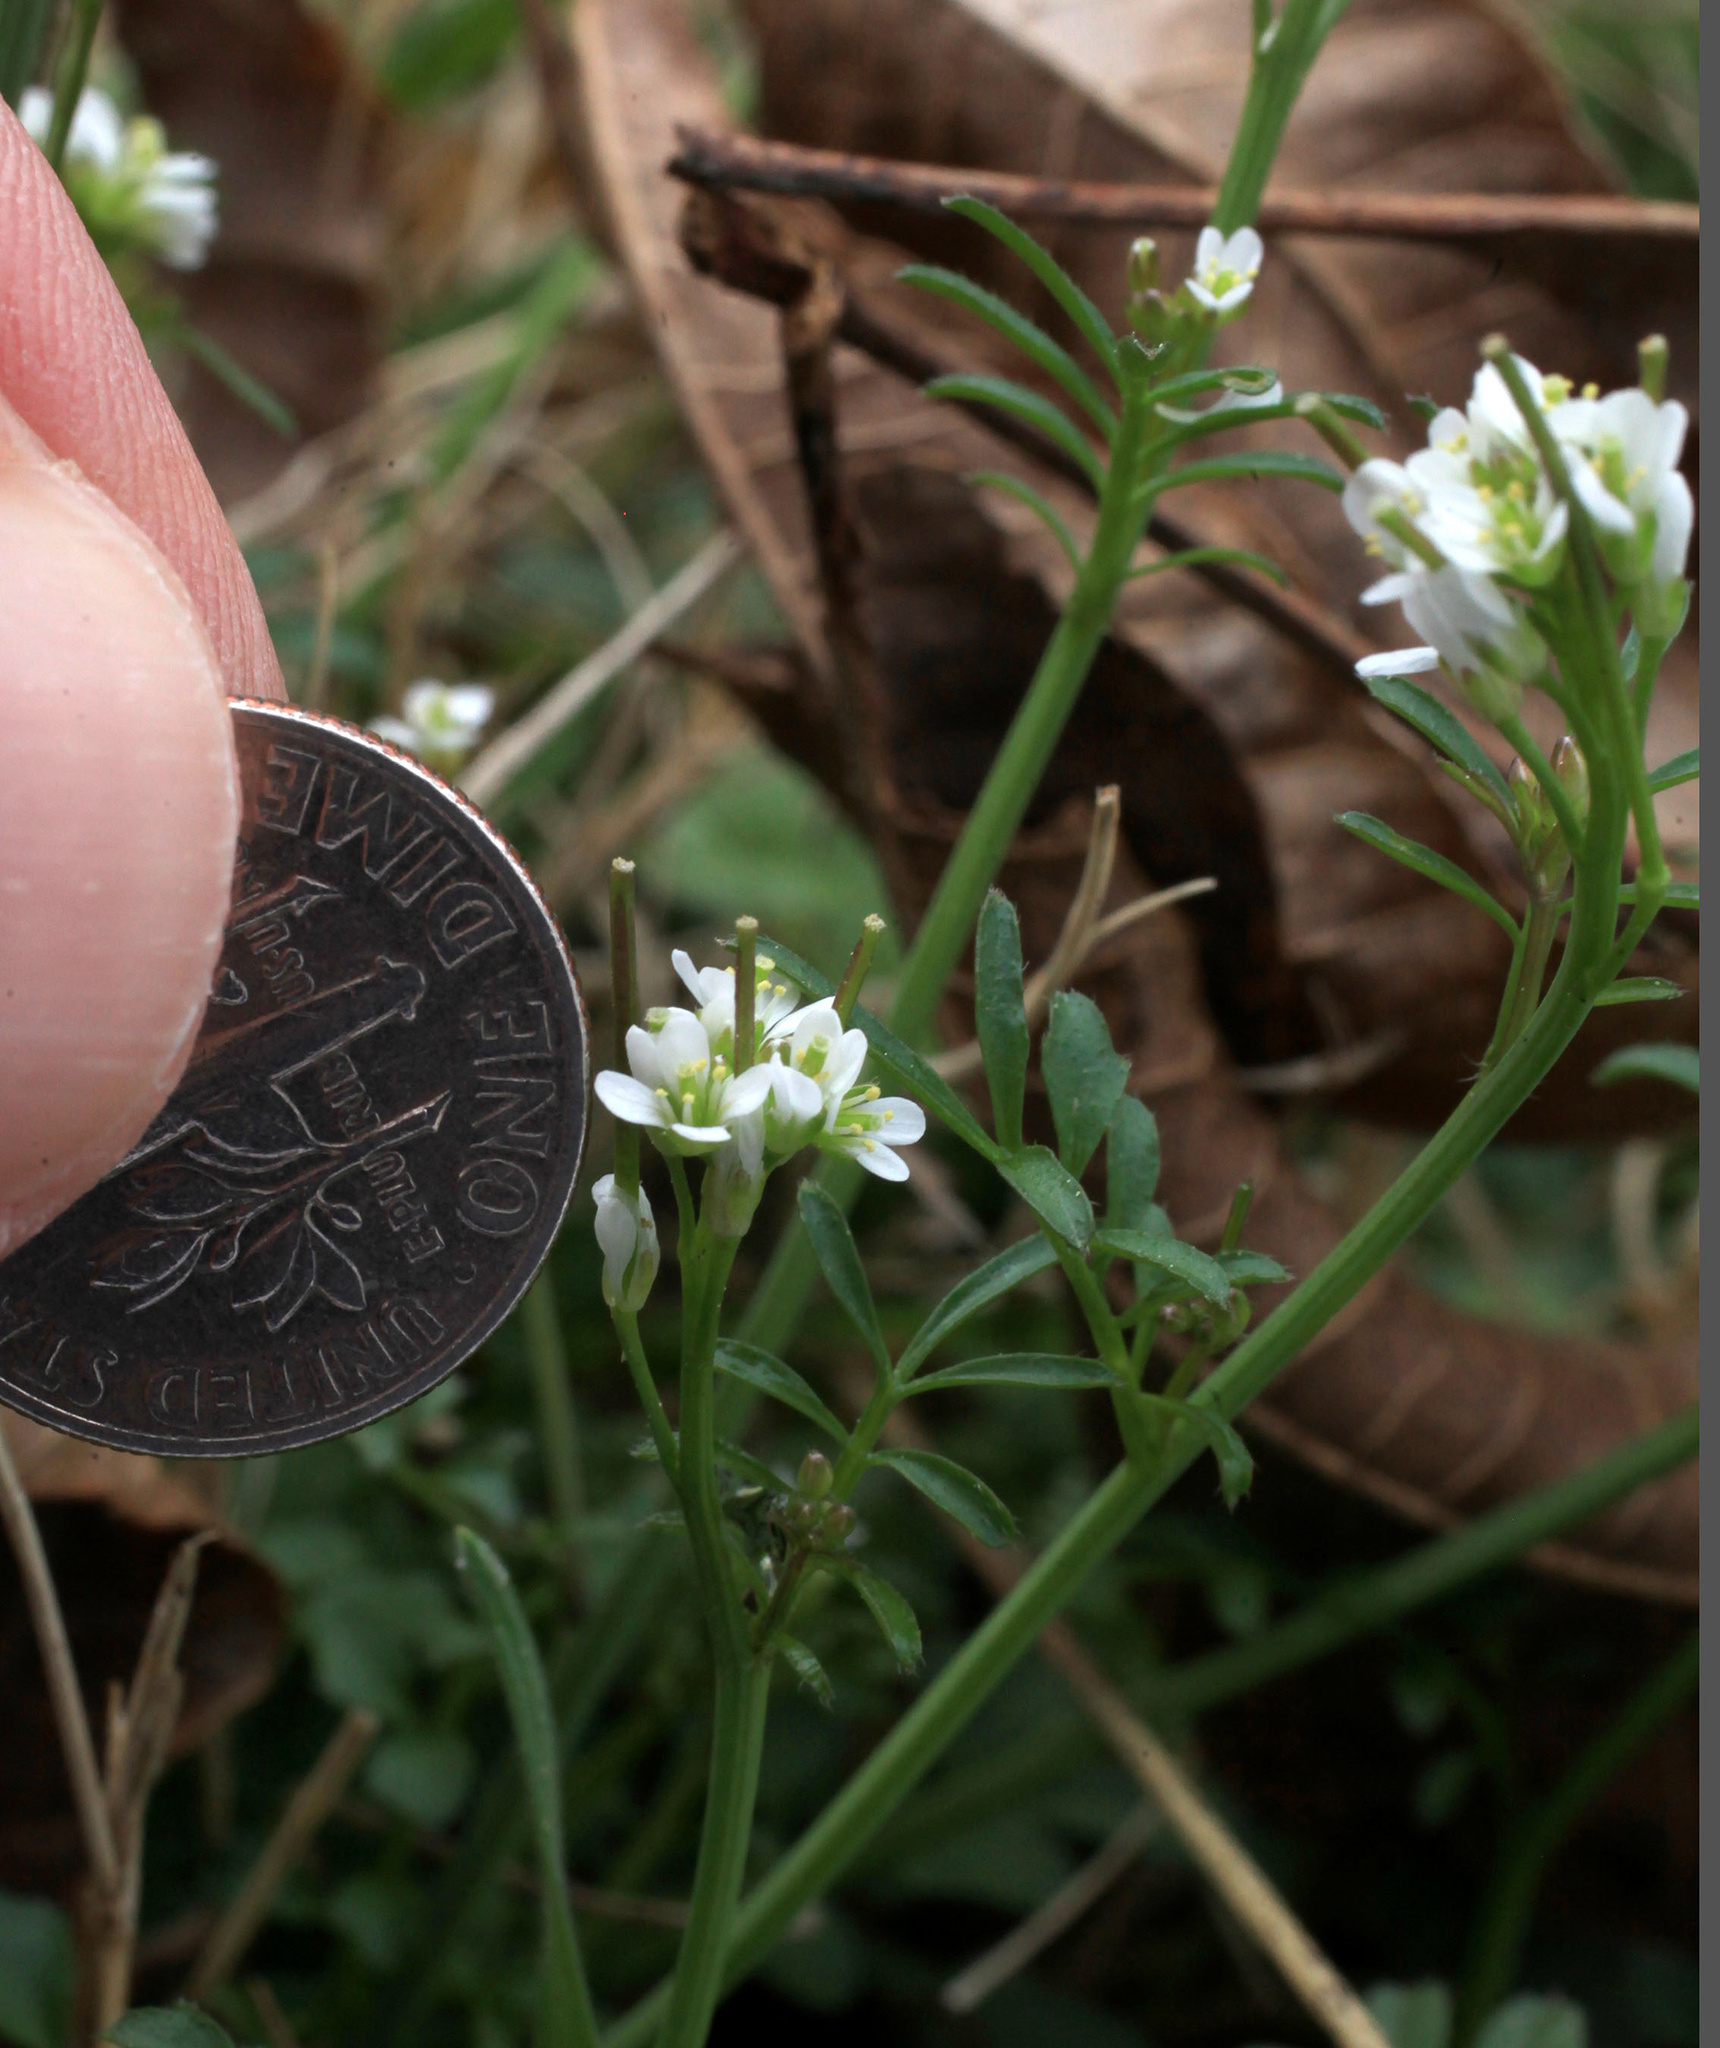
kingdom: Plantae
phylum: Tracheophyta
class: Magnoliopsida
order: Brassicales
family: Brassicaceae
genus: Cardamine
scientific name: Cardamine hirsuta
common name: Hairy bittercress
